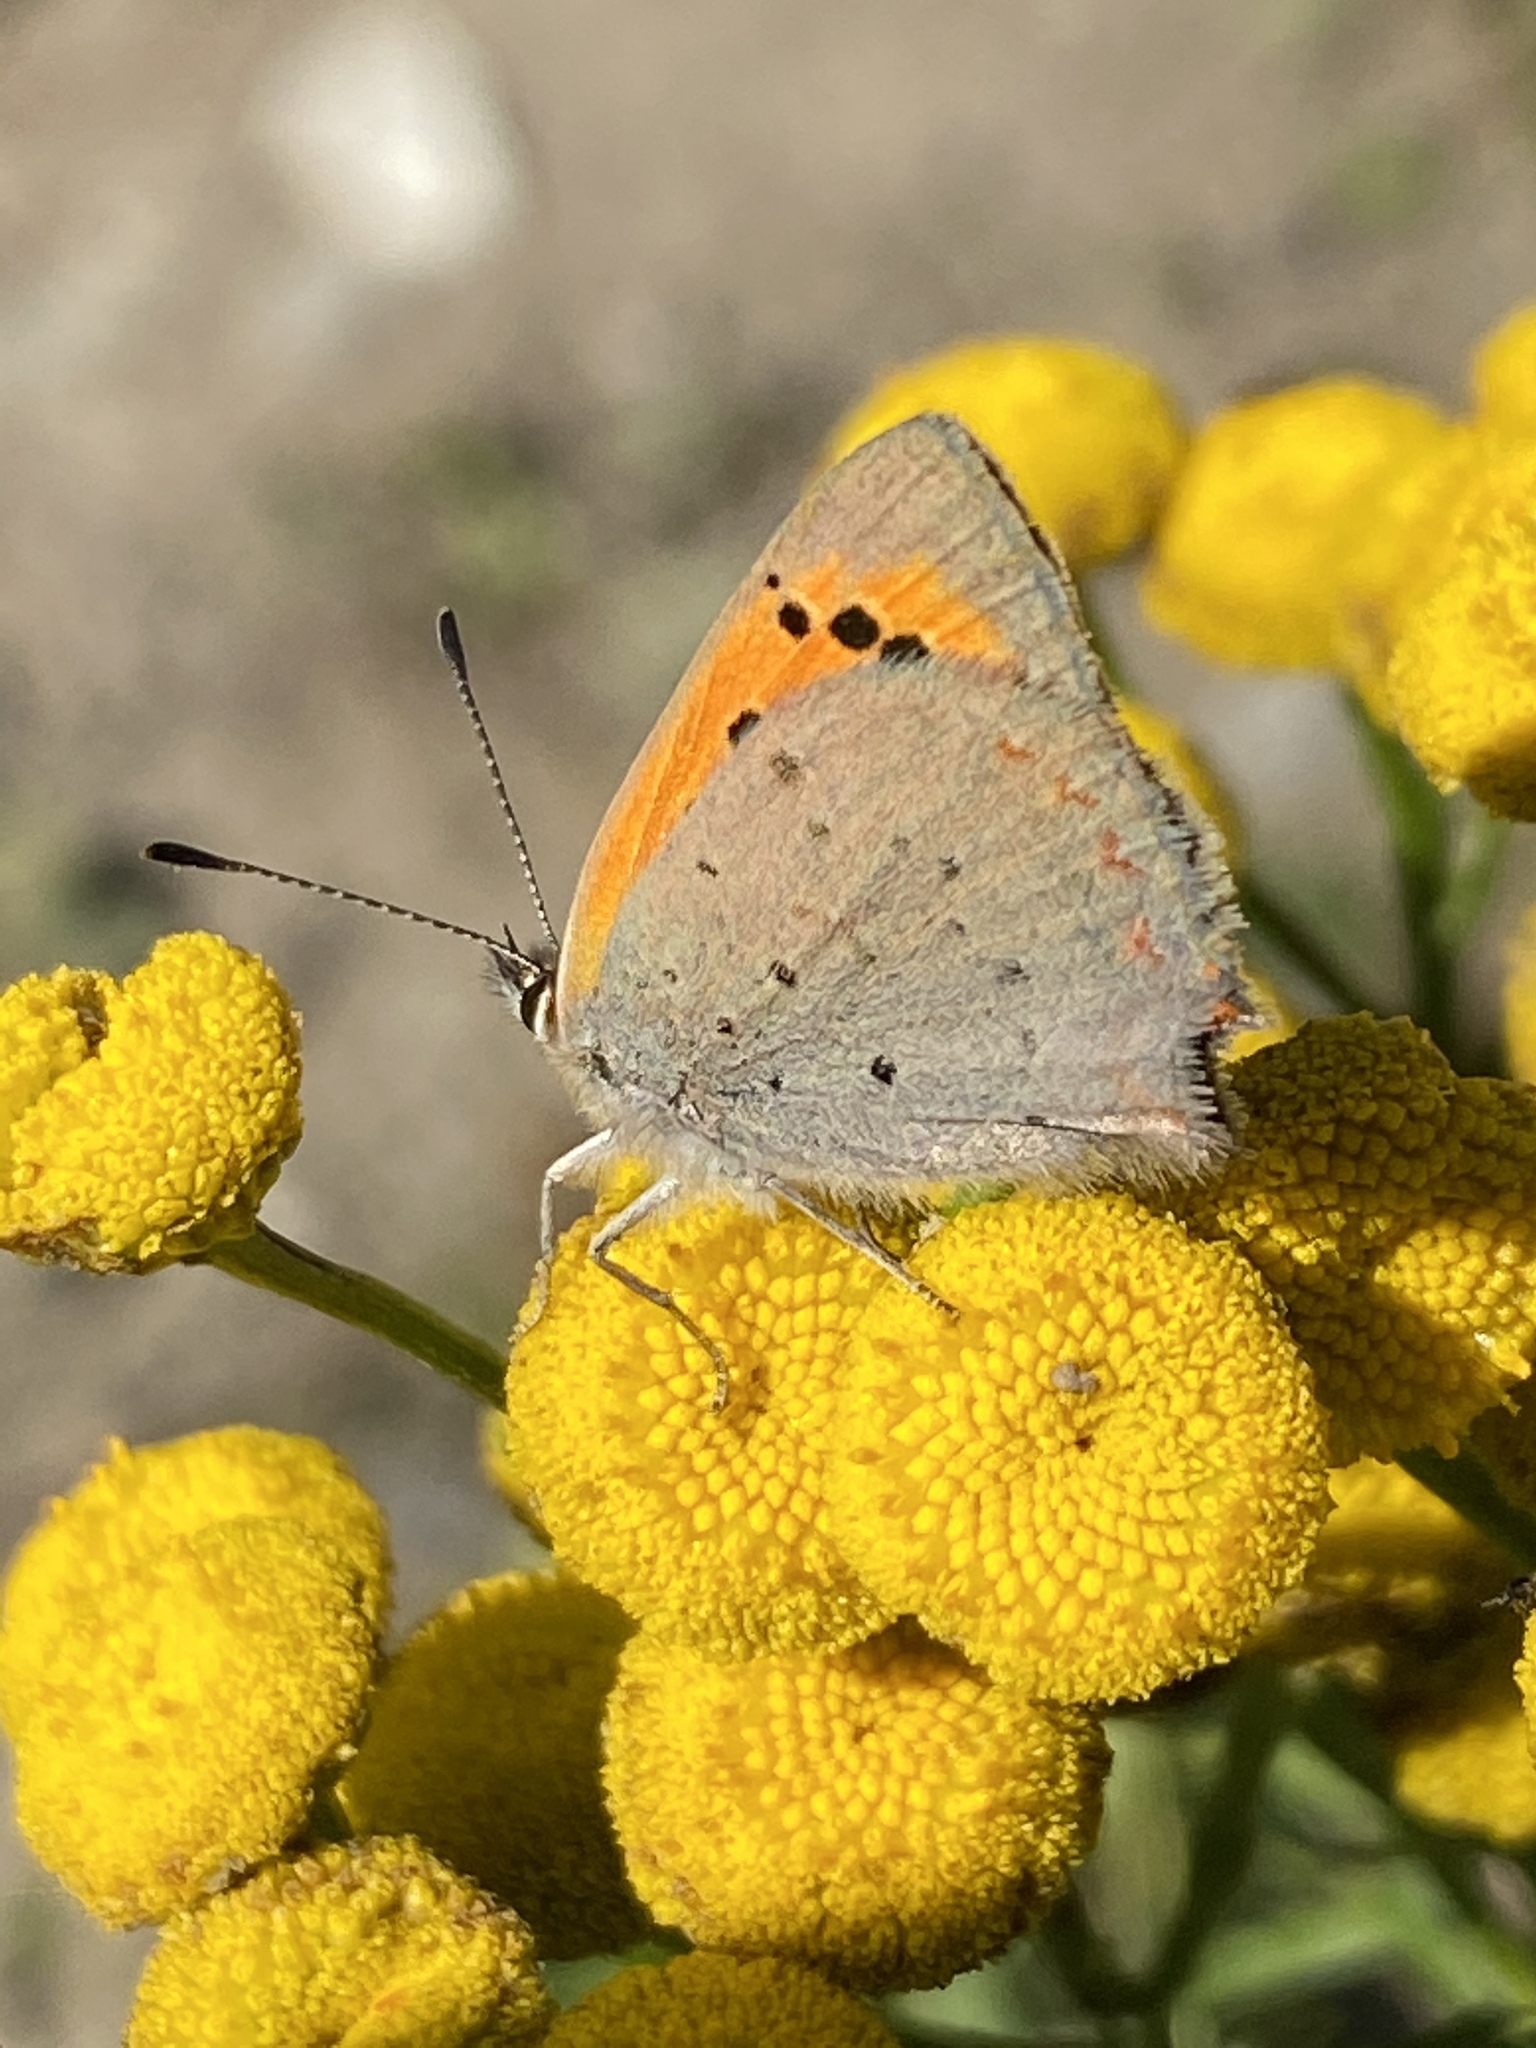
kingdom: Animalia
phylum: Arthropoda
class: Insecta
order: Lepidoptera
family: Lycaenidae
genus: Lycaena
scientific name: Lycaena phlaeas
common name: Small copper
